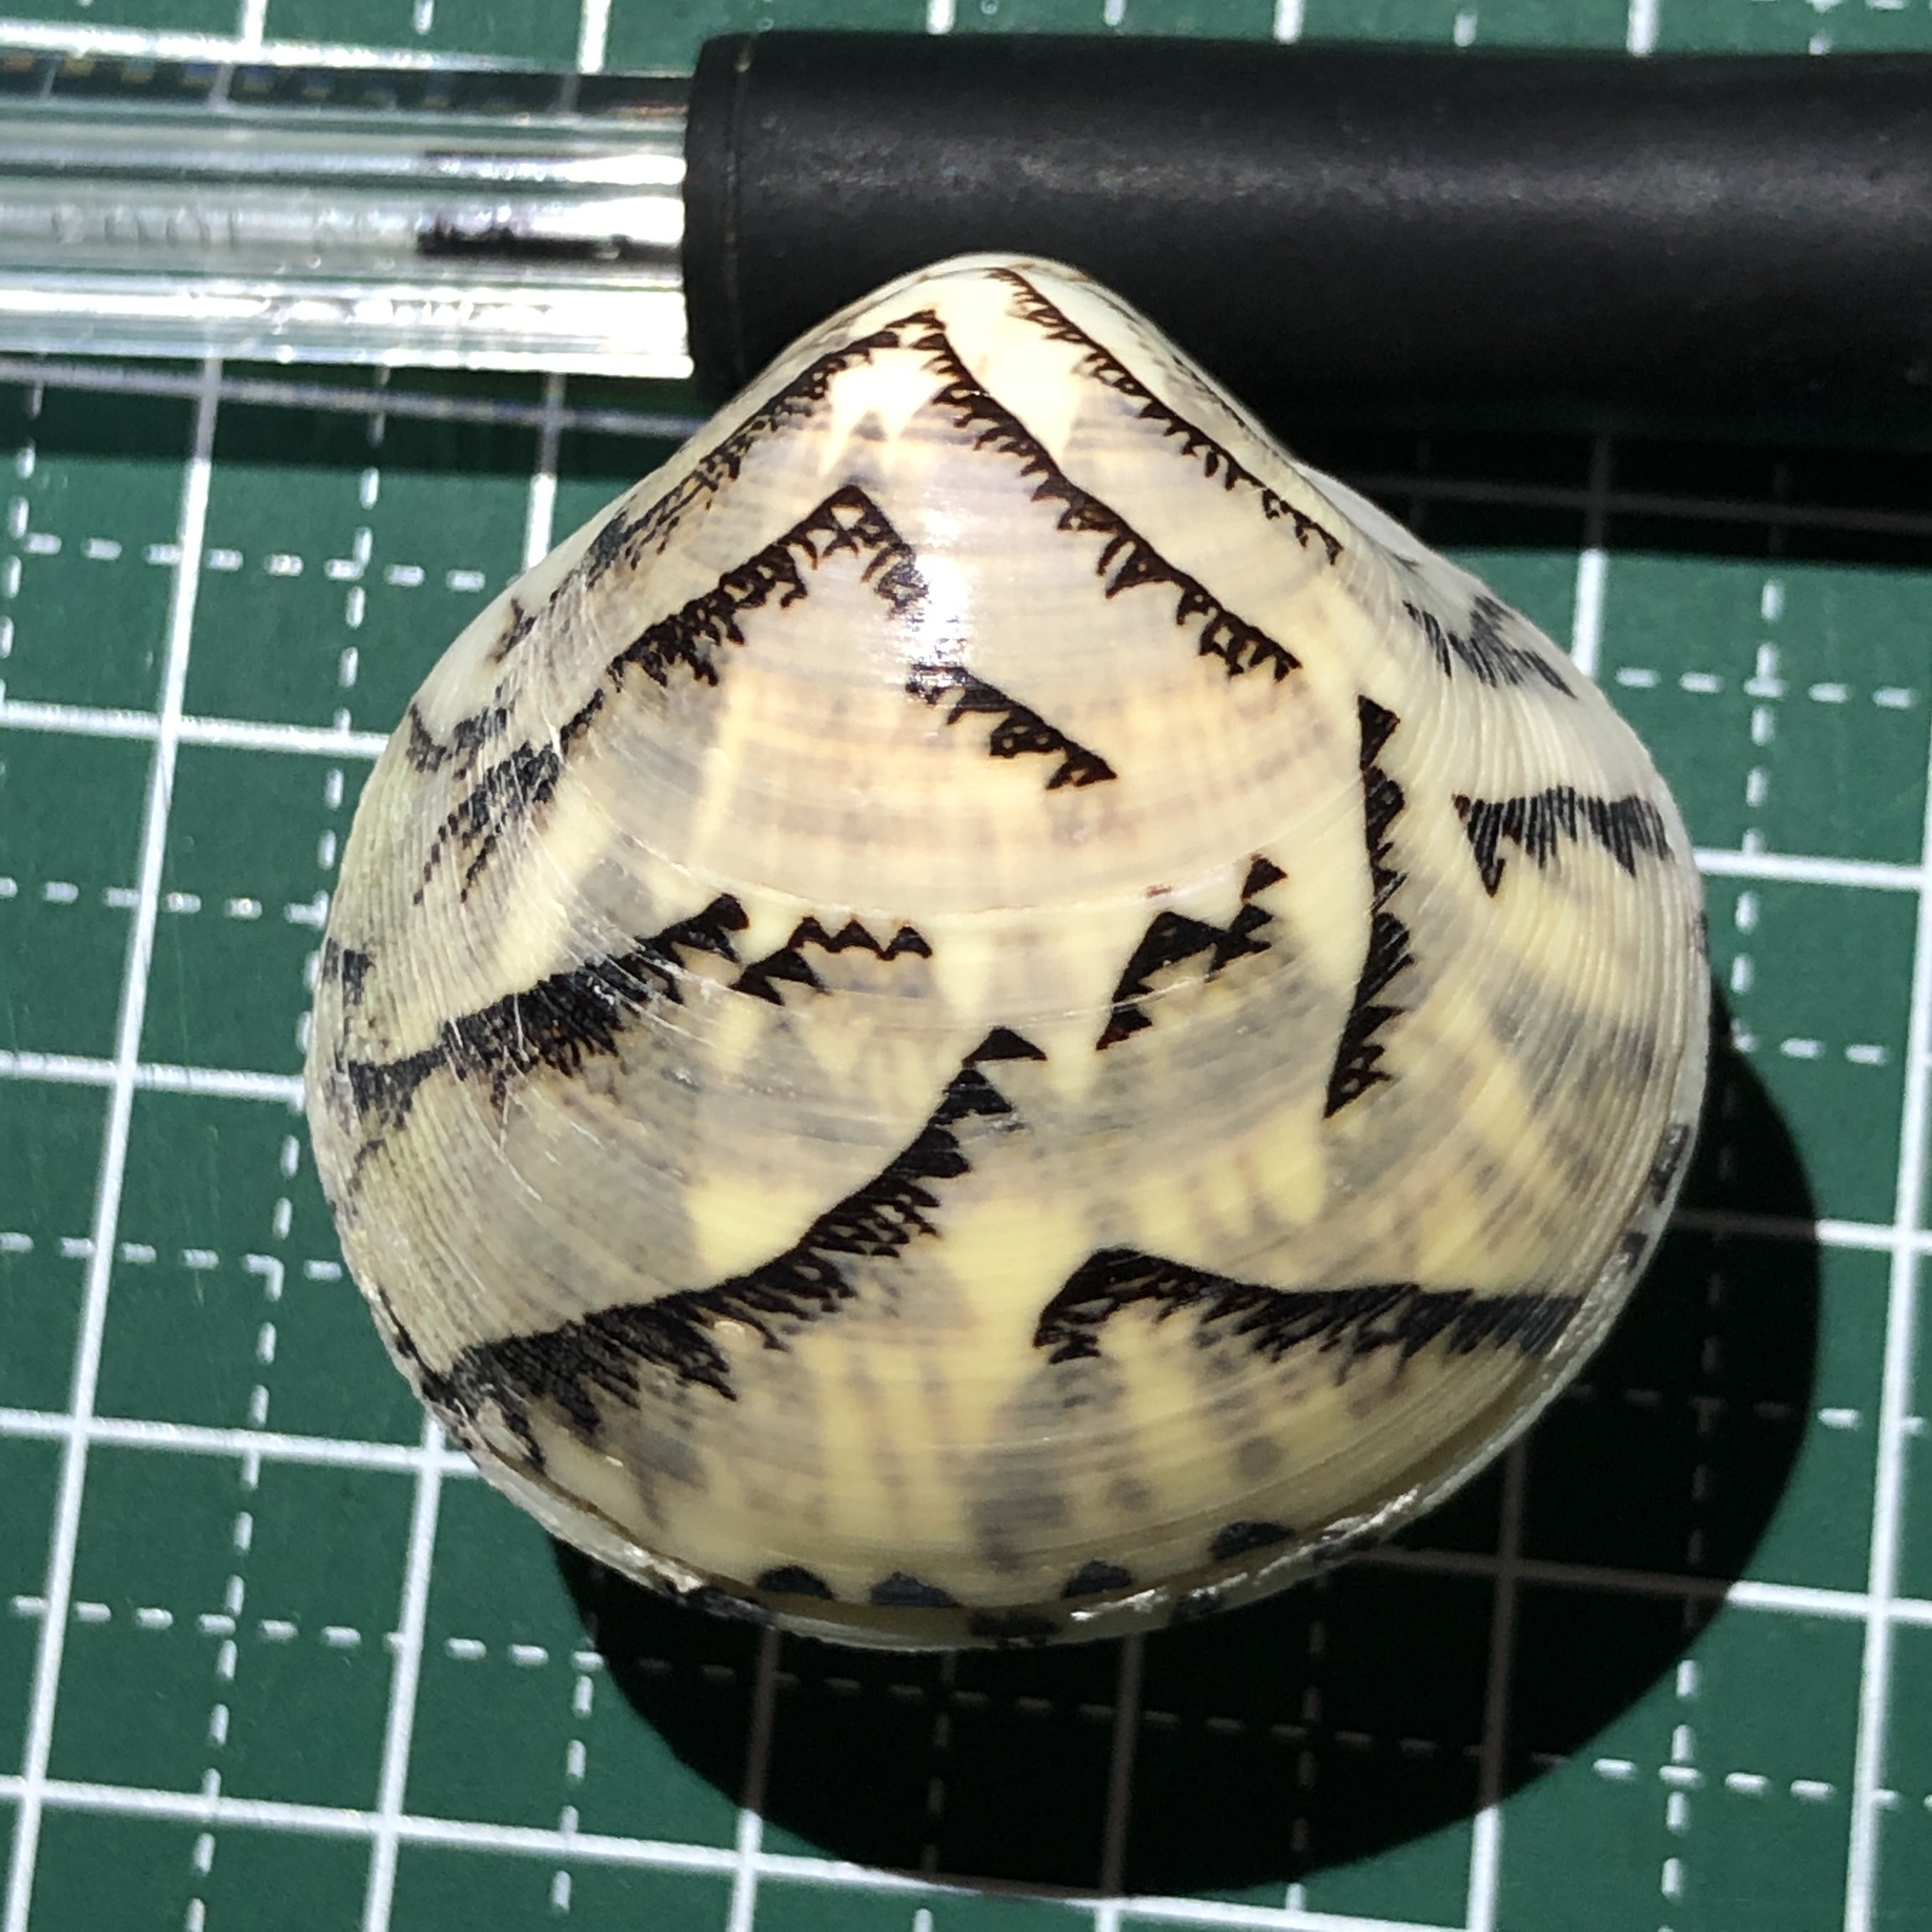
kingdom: Animalia
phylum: Mollusca
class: Bivalvia
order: Venerida
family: Veneridae
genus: Lioconcha
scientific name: Lioconcha castrensis
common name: Camp pitar-venus
